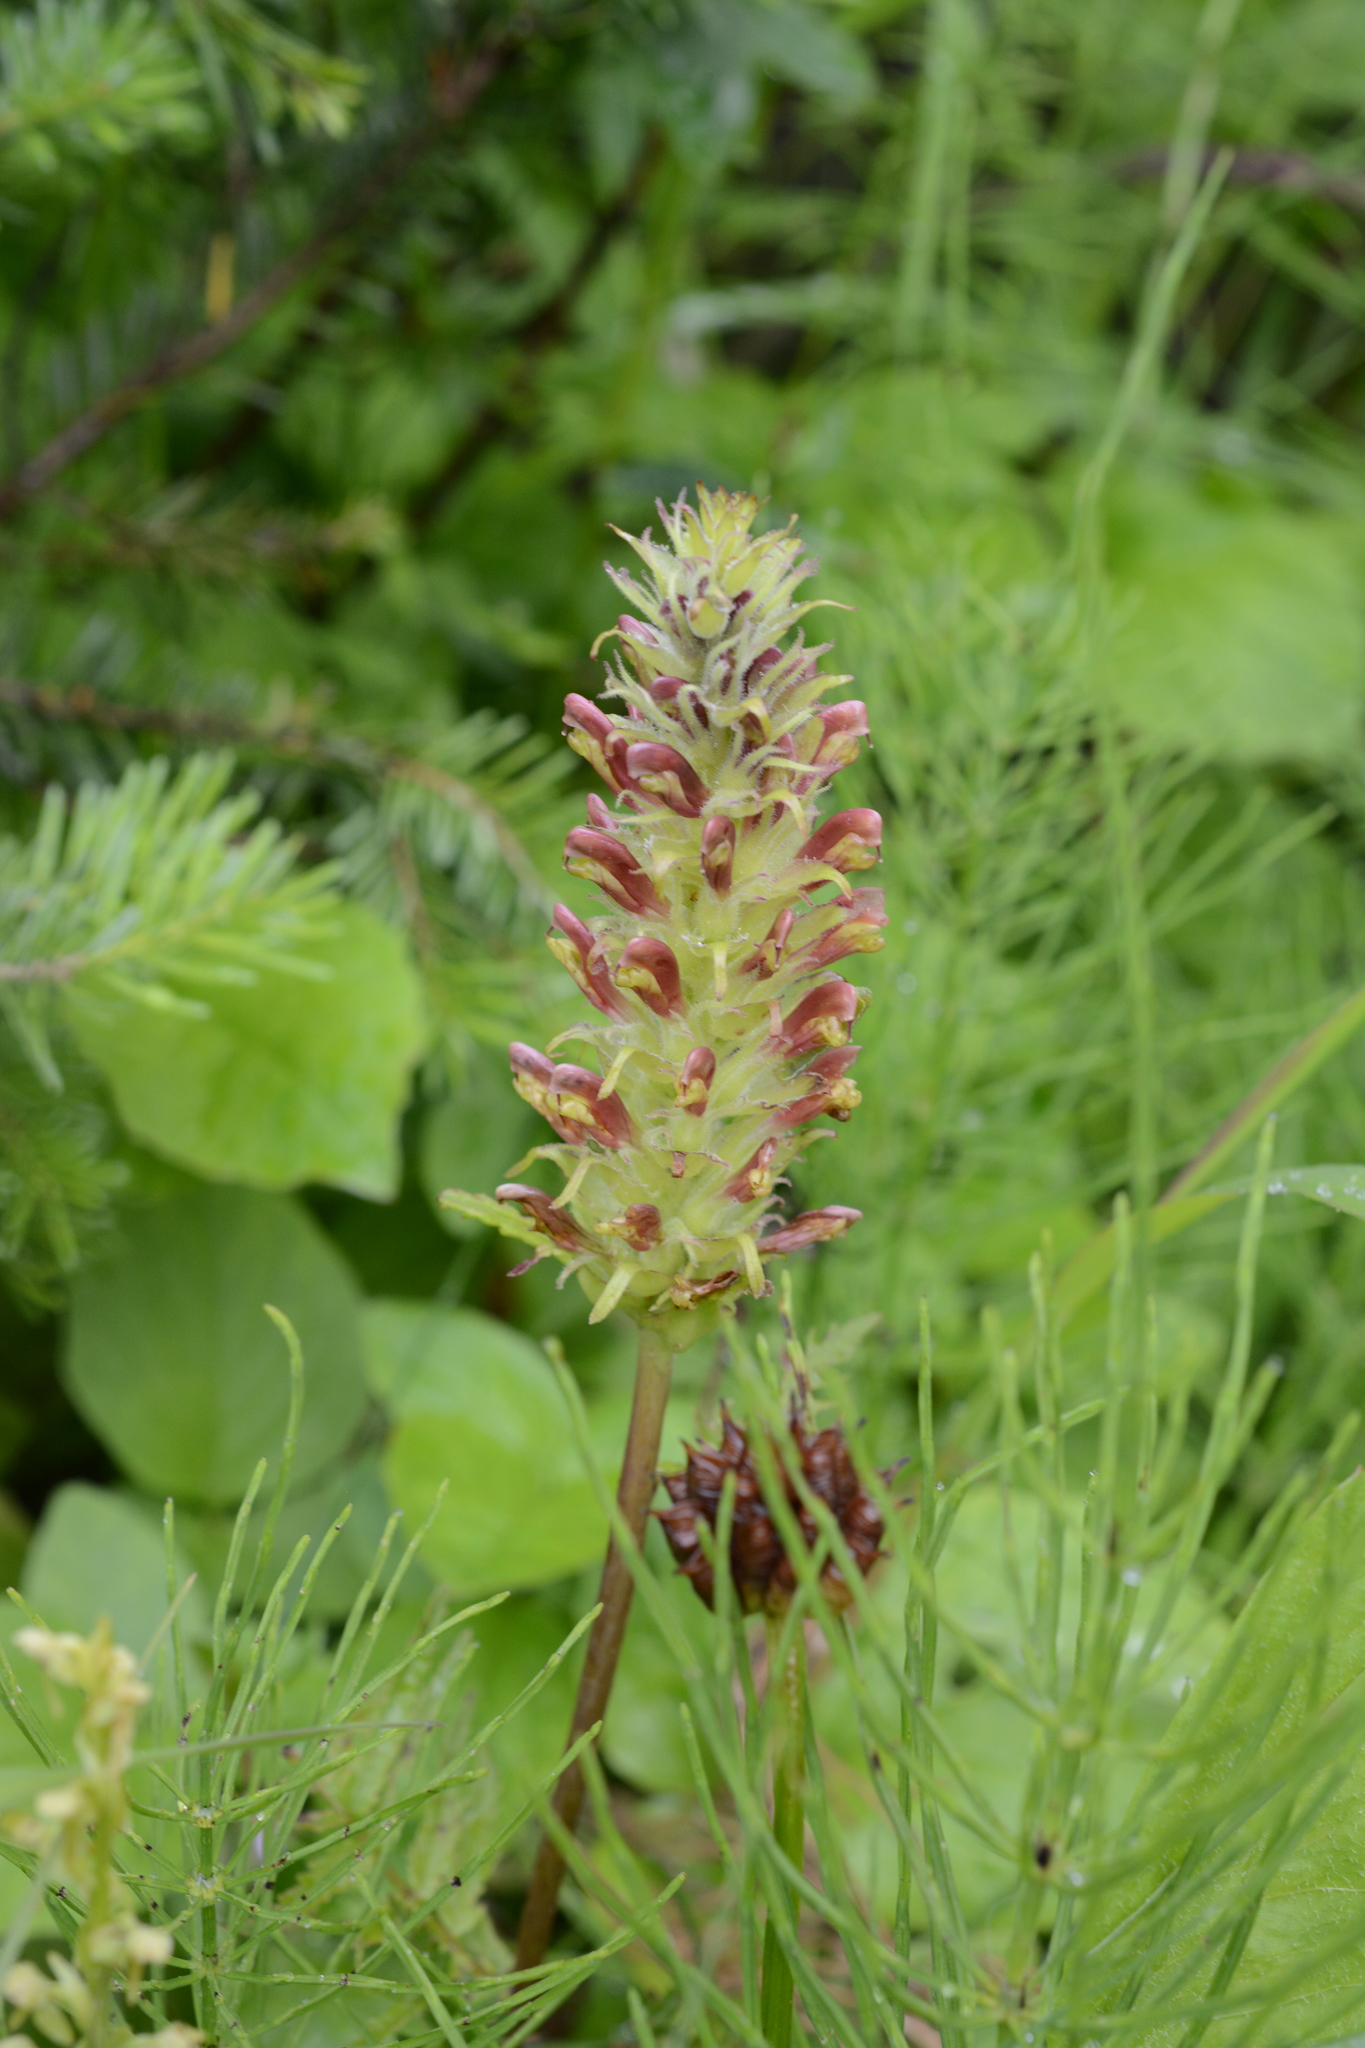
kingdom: Plantae
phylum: Tracheophyta
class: Magnoliopsida
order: Lamiales
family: Orobanchaceae
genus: Pedicularis
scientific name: Pedicularis bracteosa
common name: Bracted lousewort
